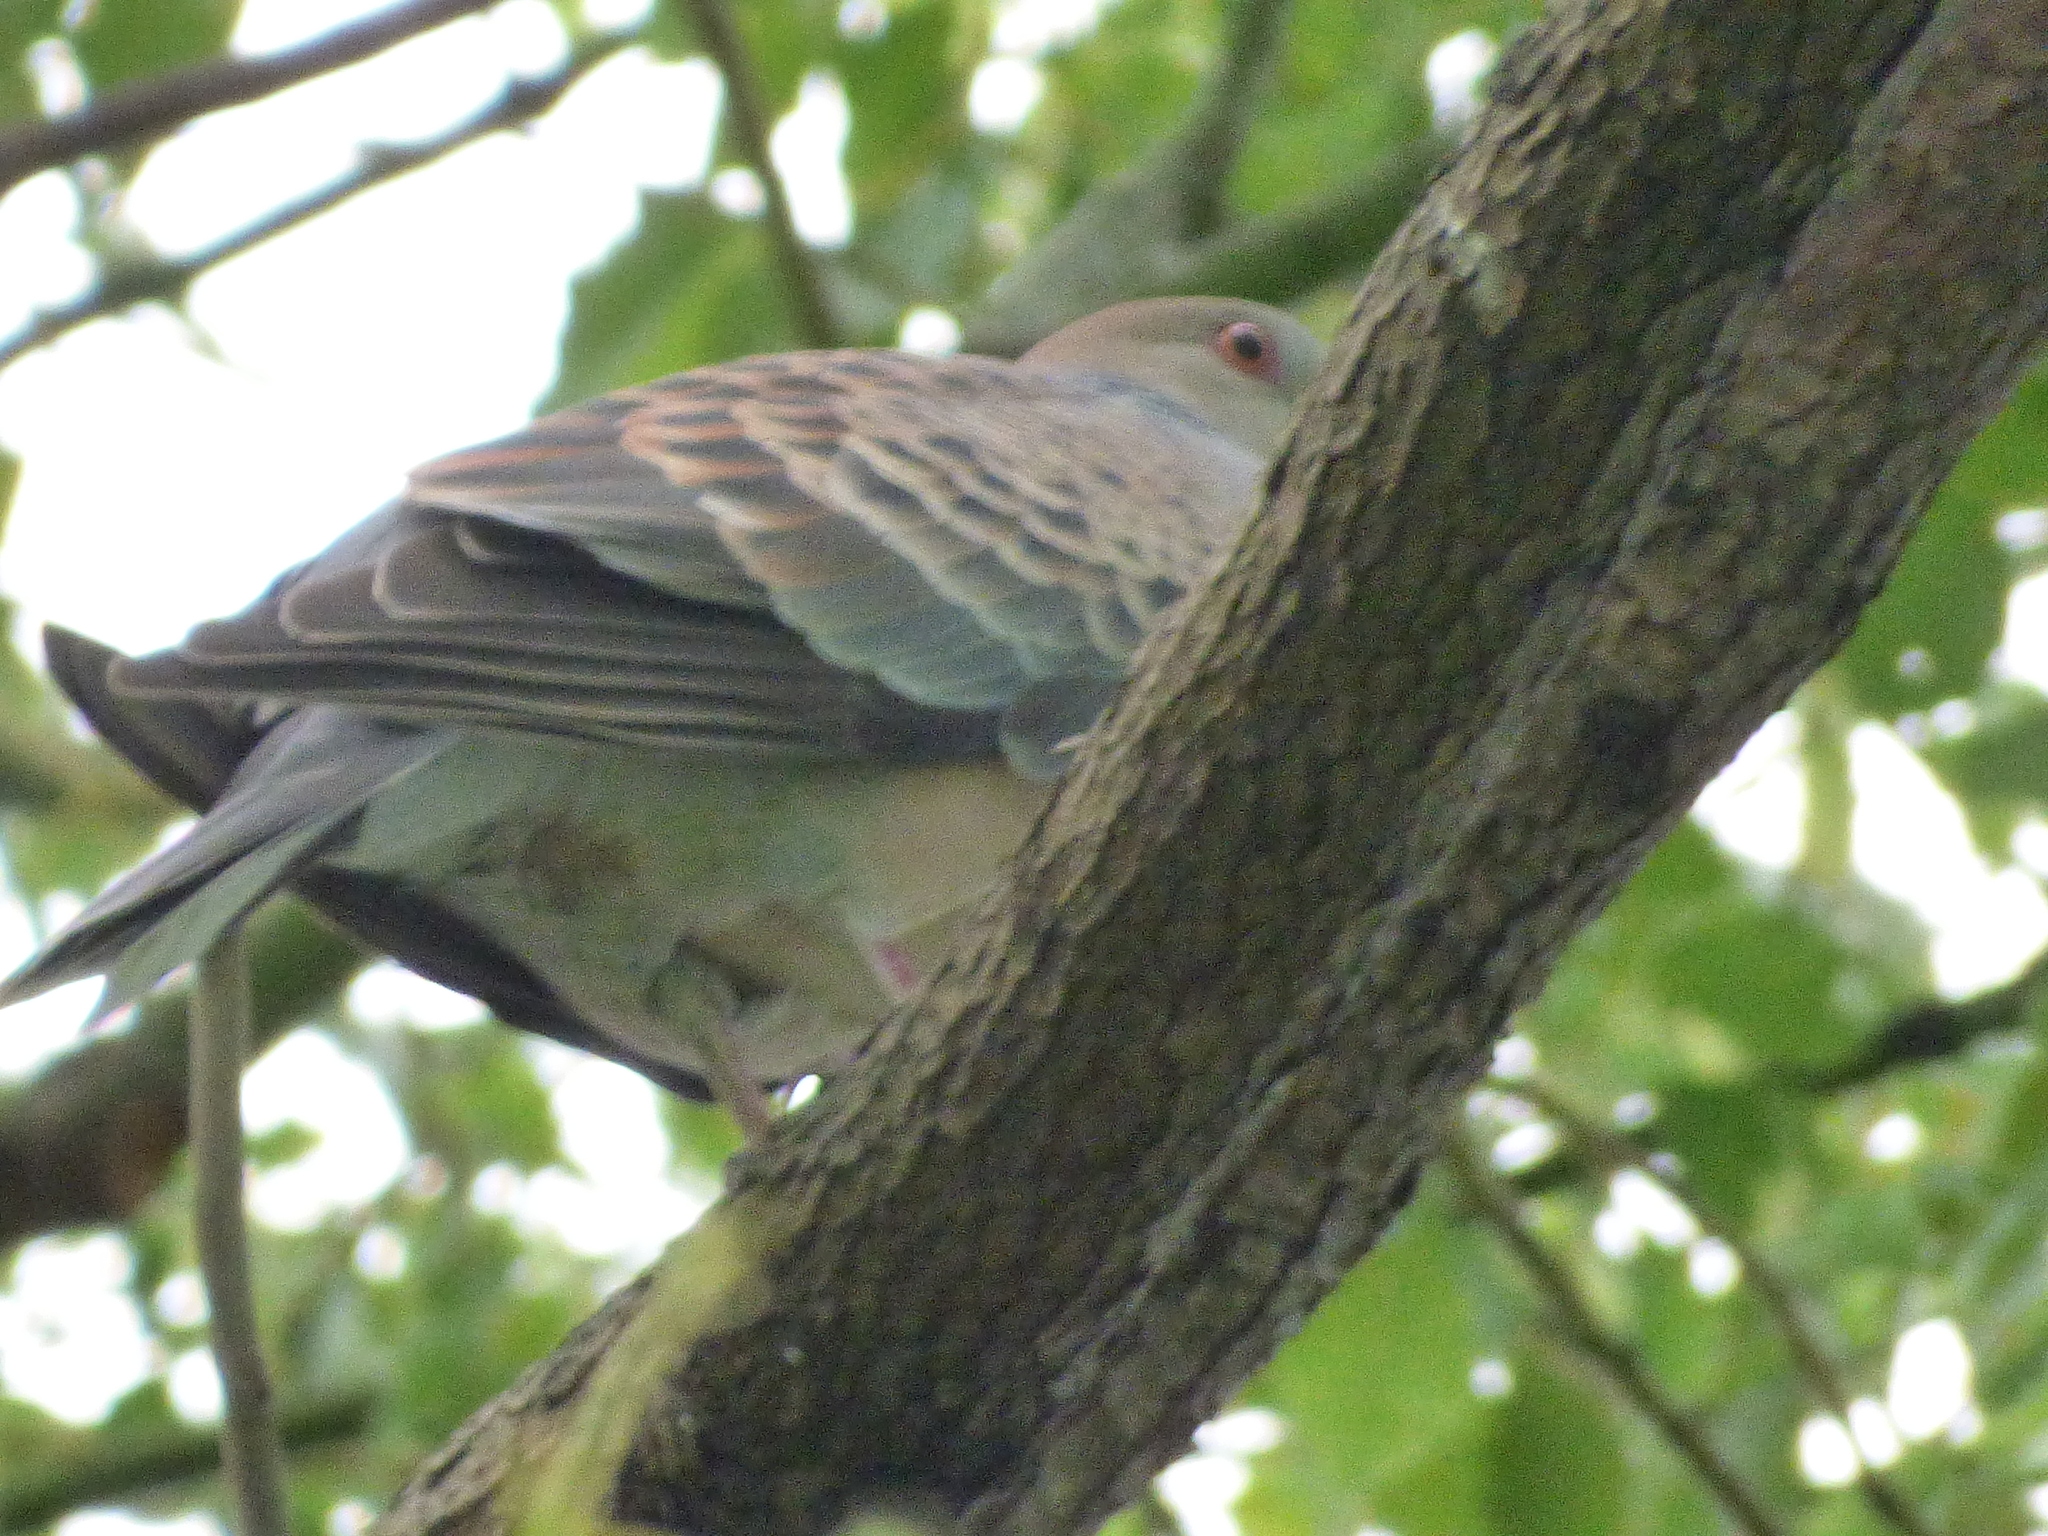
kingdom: Animalia
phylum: Chordata
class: Aves
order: Columbiformes
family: Columbidae
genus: Streptopelia
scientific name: Streptopelia orientalis
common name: Oriental turtle dove
